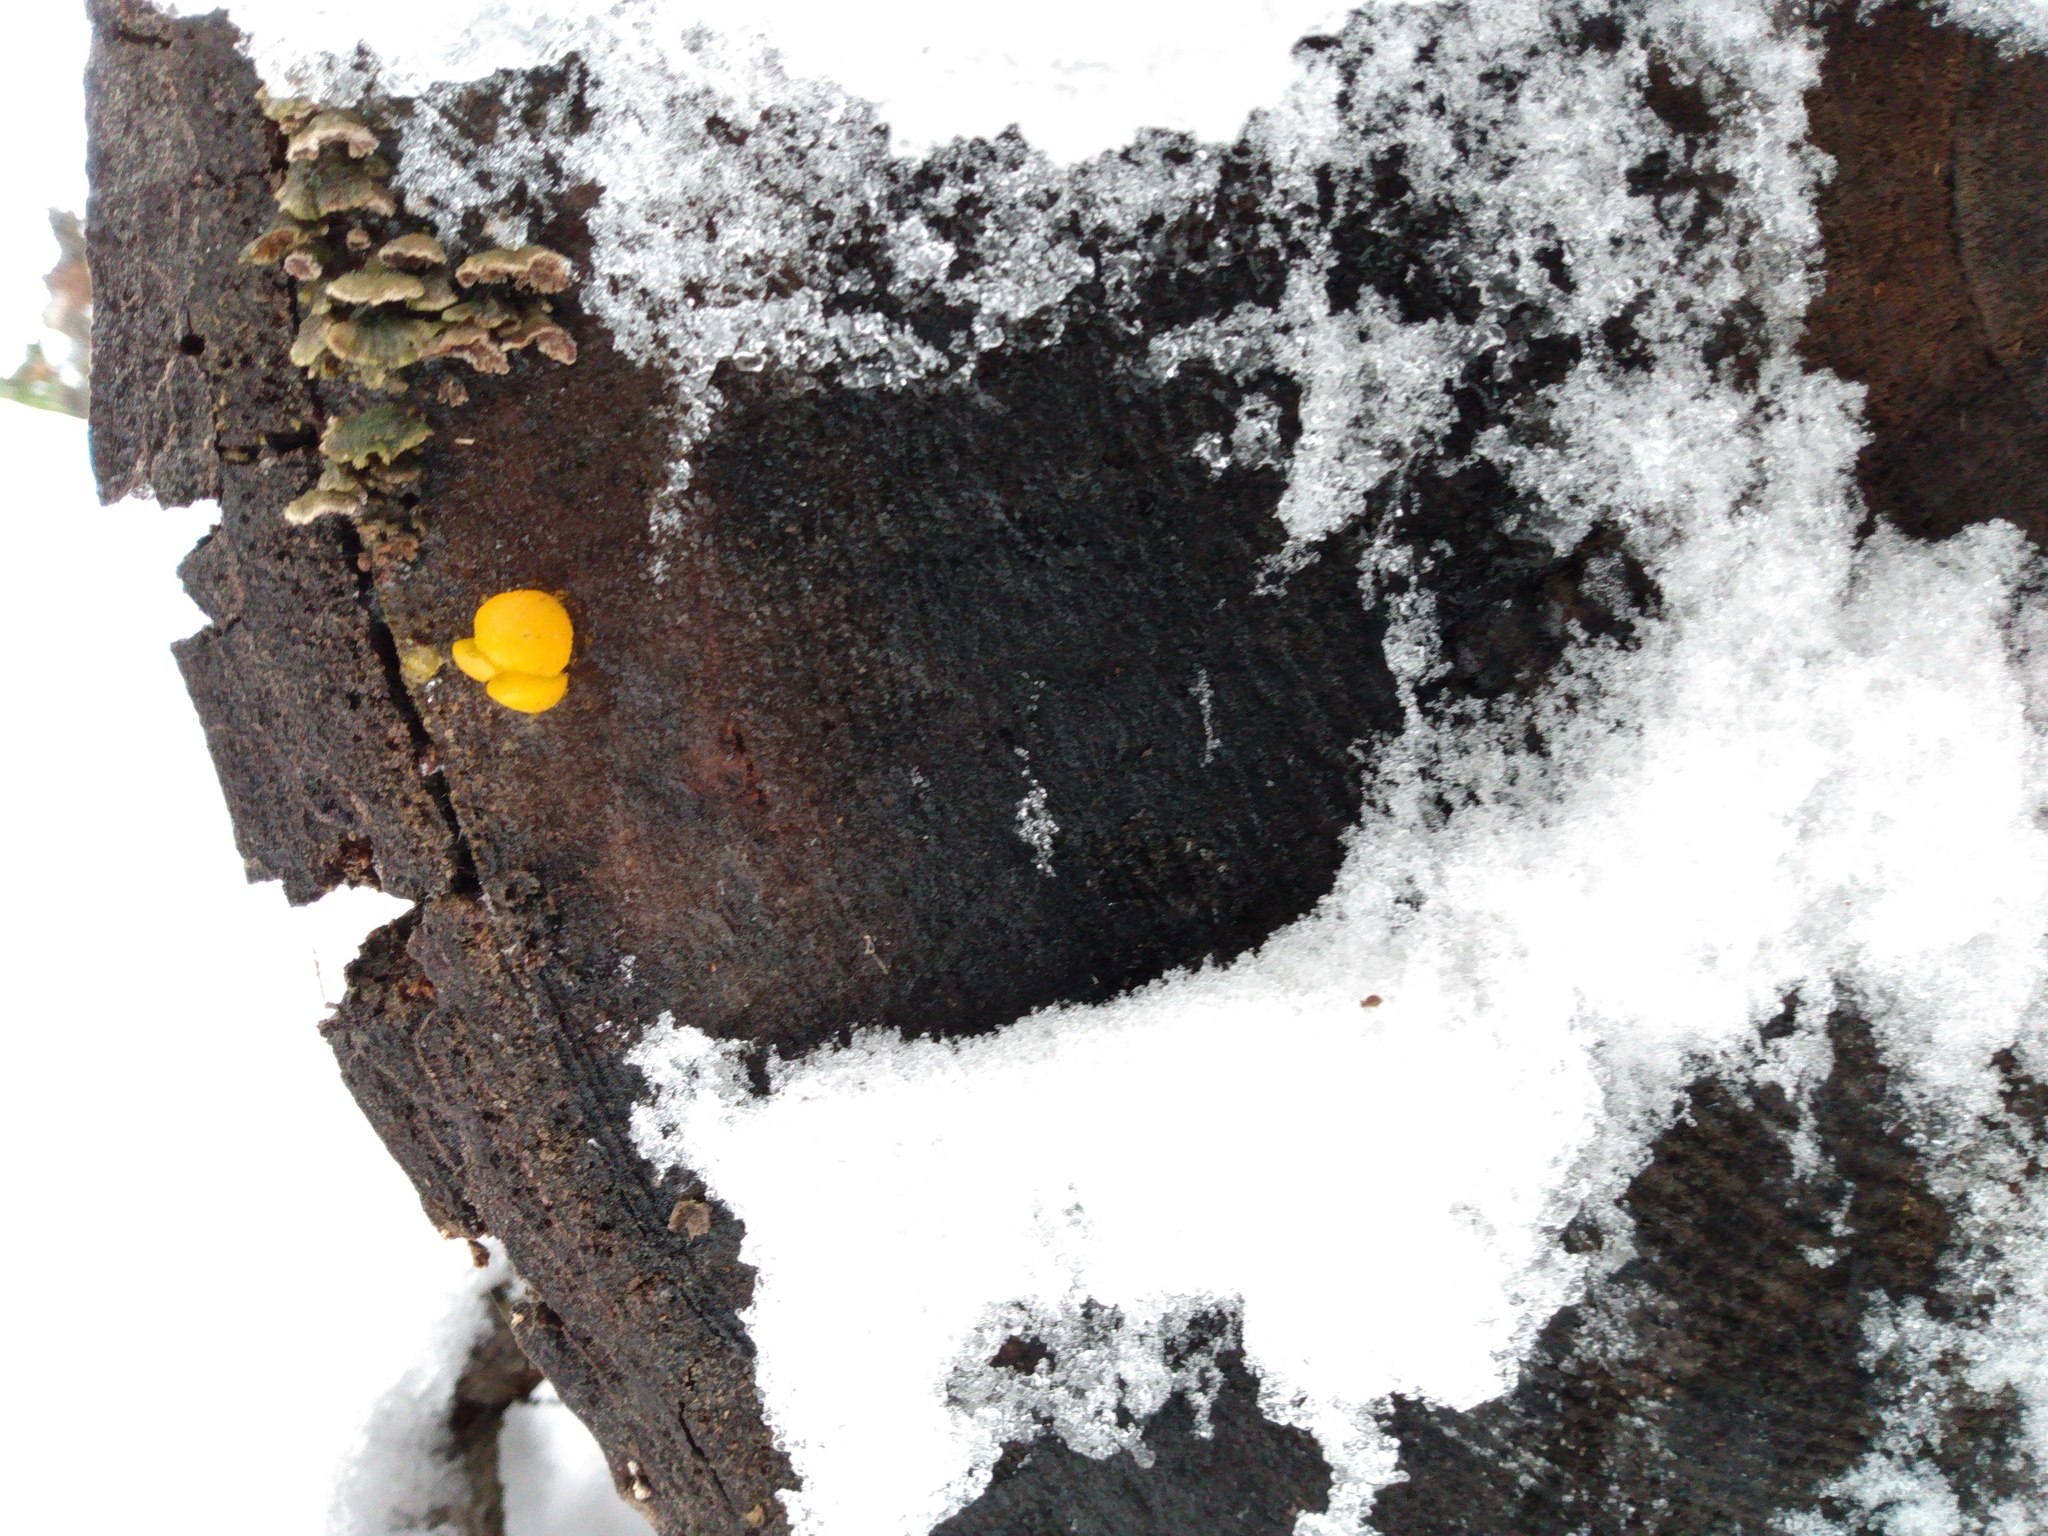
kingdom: Fungi
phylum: Basidiomycota
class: Dacrymycetes
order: Dacrymycetales
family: Dacrymycetaceae
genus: Dacrymyces
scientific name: Dacrymyces chrysospermus
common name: Orange jelly spot
